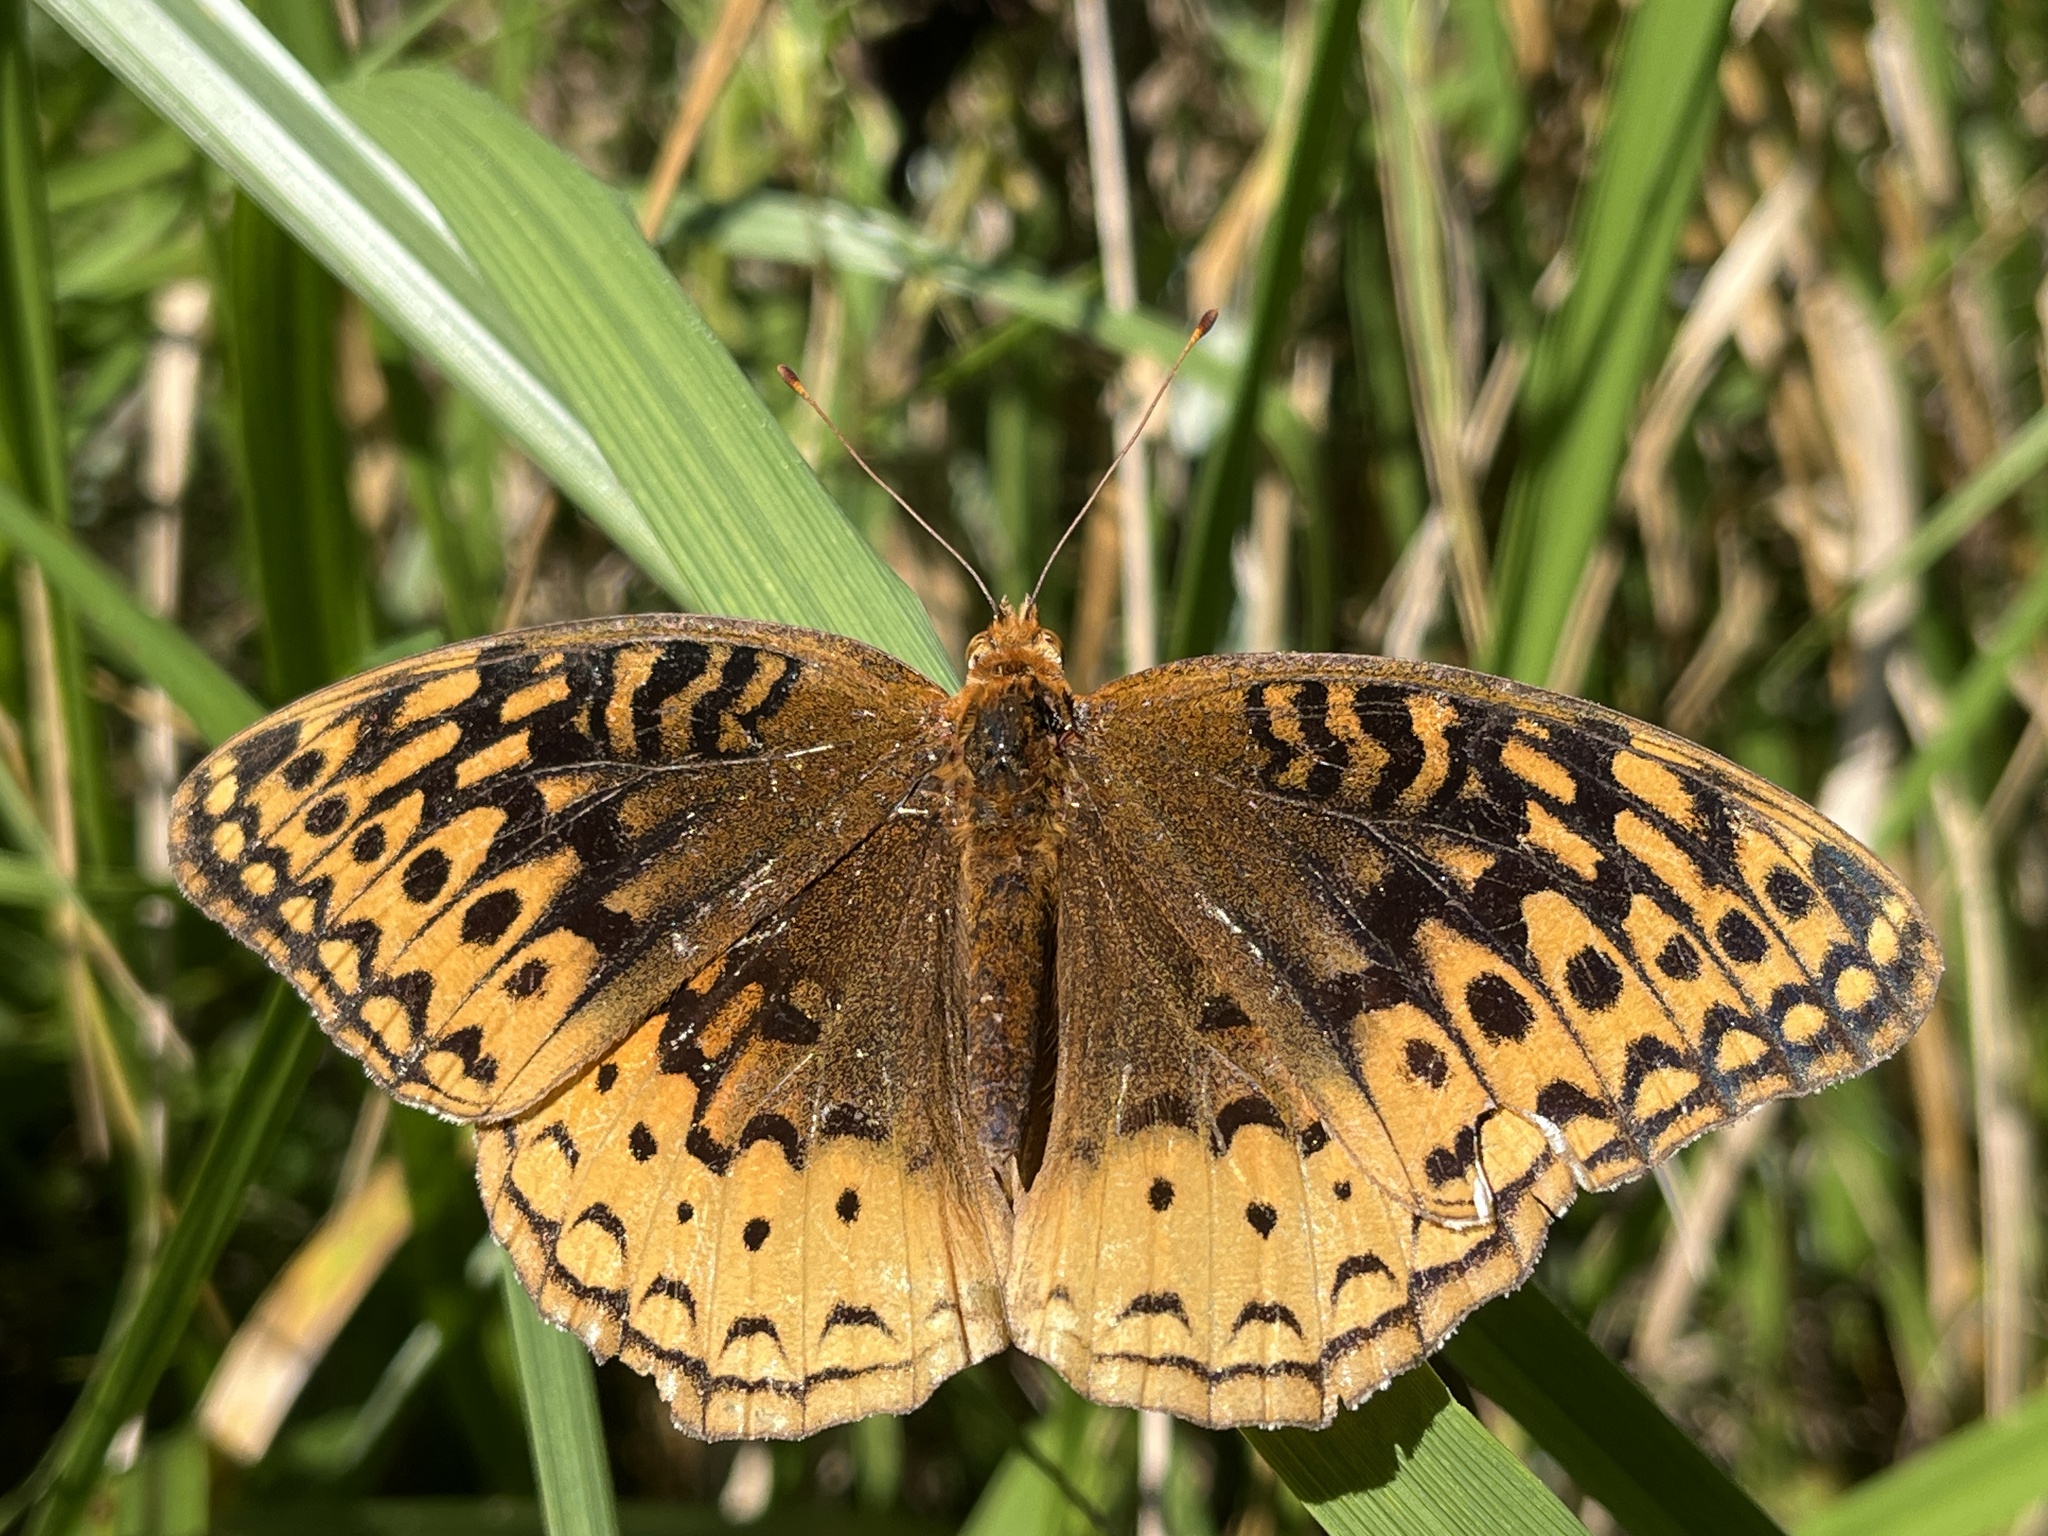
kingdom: Animalia
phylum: Arthropoda
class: Insecta
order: Lepidoptera
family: Nymphalidae
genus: Speyeria
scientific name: Speyeria cybele
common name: Great spangled fritillary
